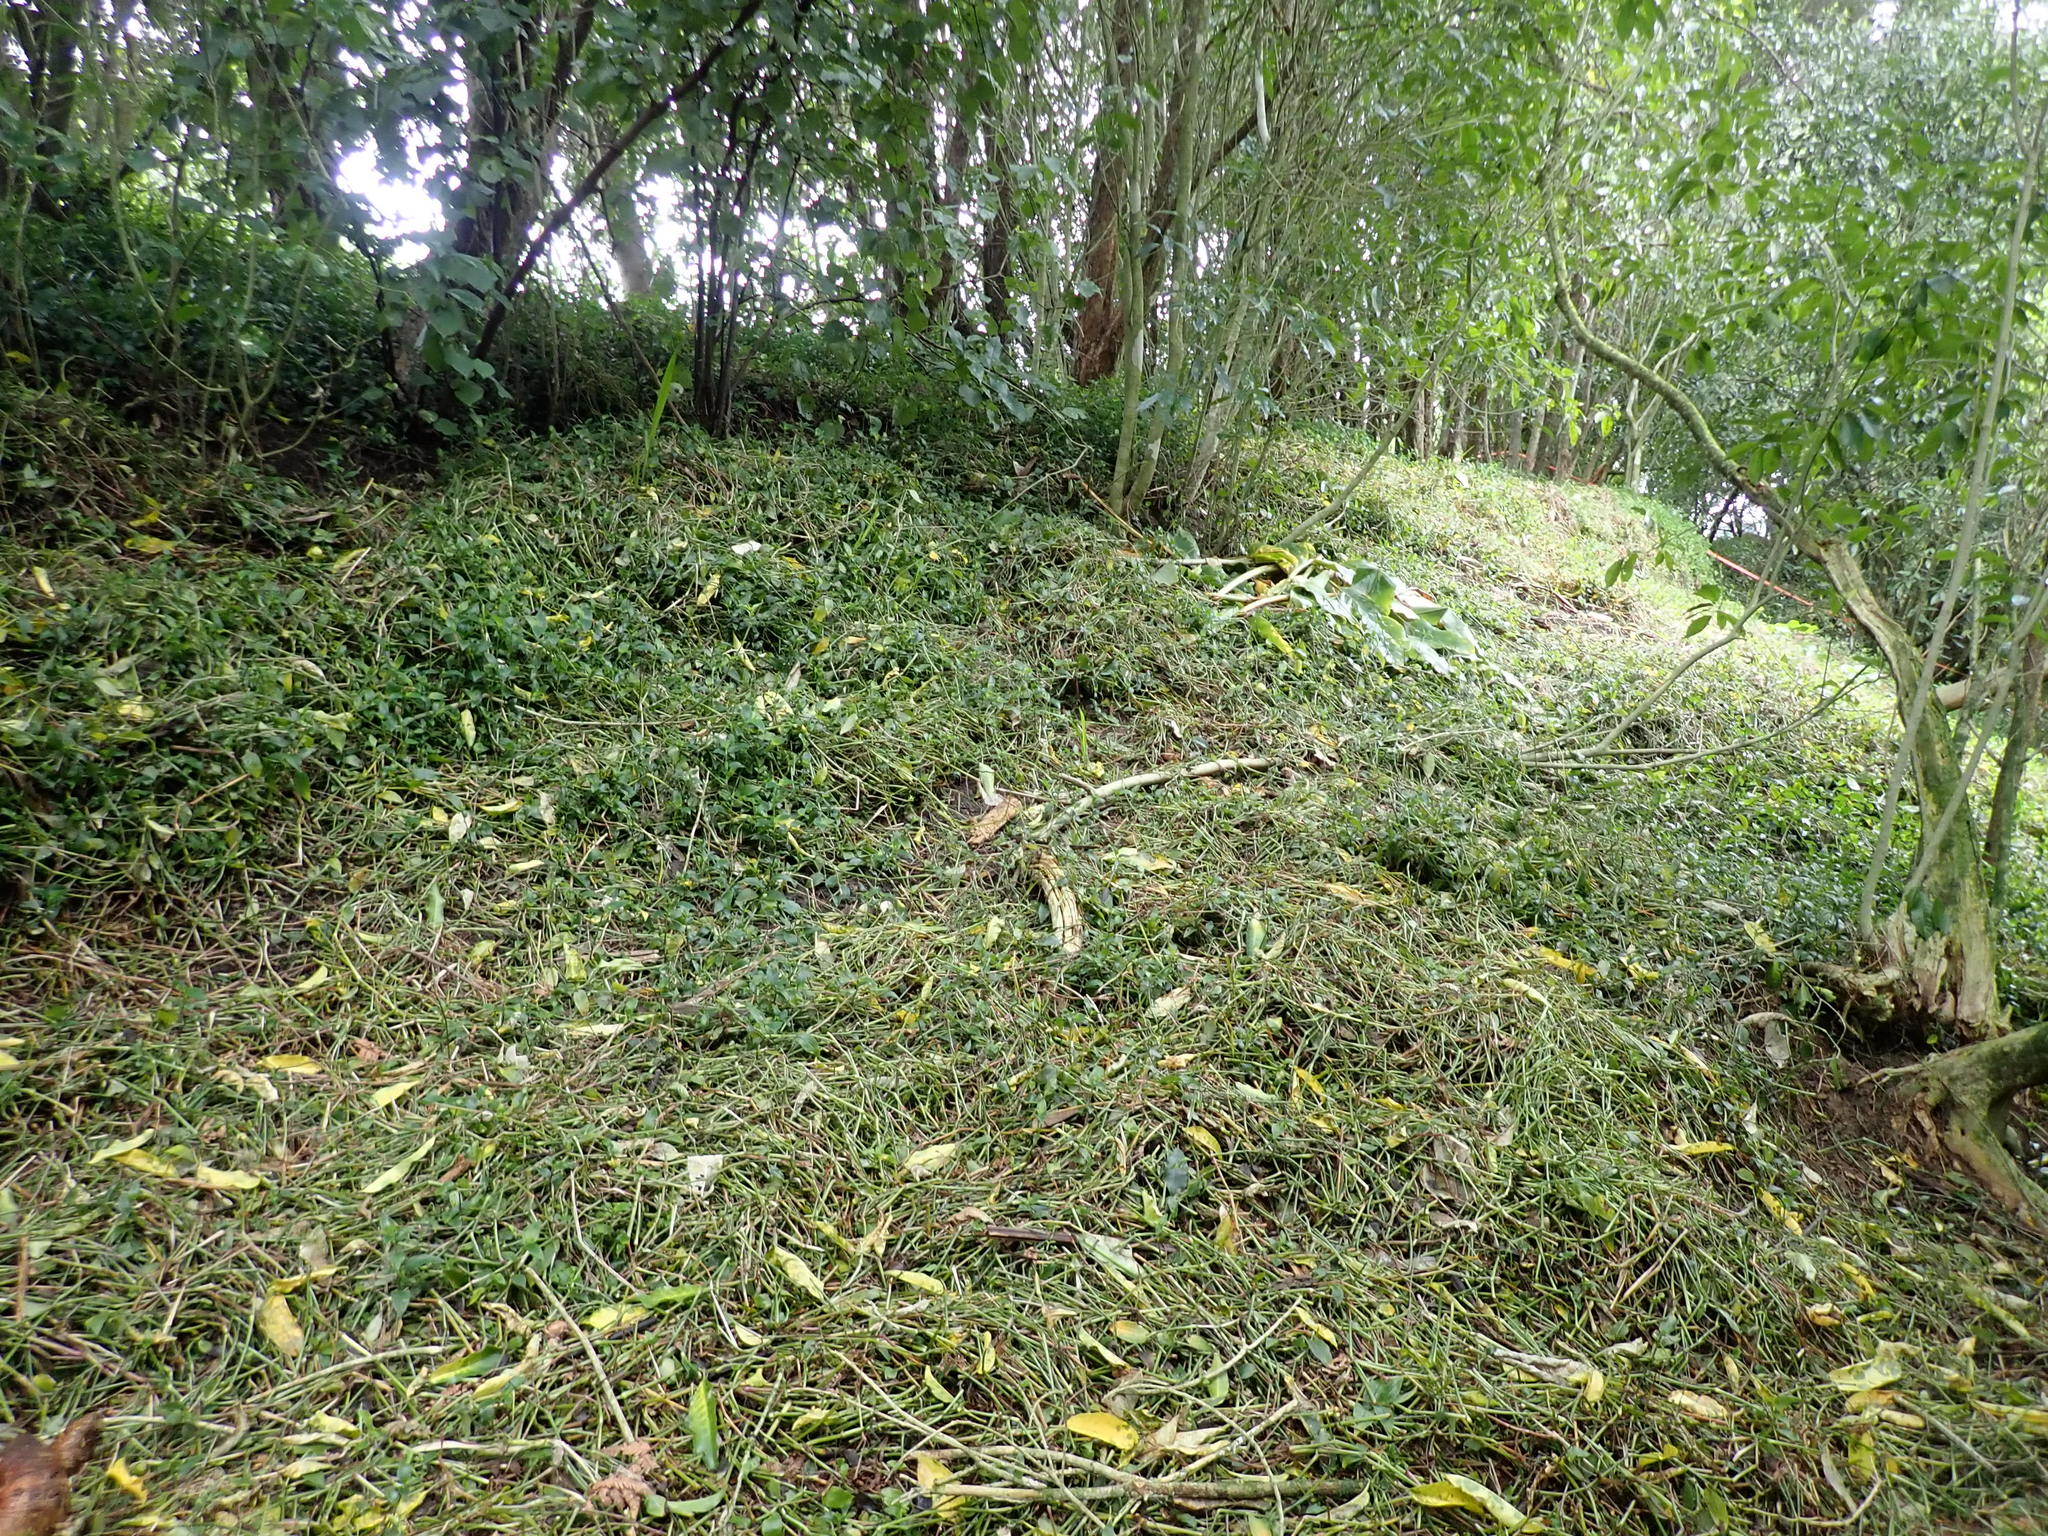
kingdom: Plantae
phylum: Tracheophyta
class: Magnoliopsida
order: Malpighiales
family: Violaceae
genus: Melicytus
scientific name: Melicytus ramiflorus
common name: Mahoe
